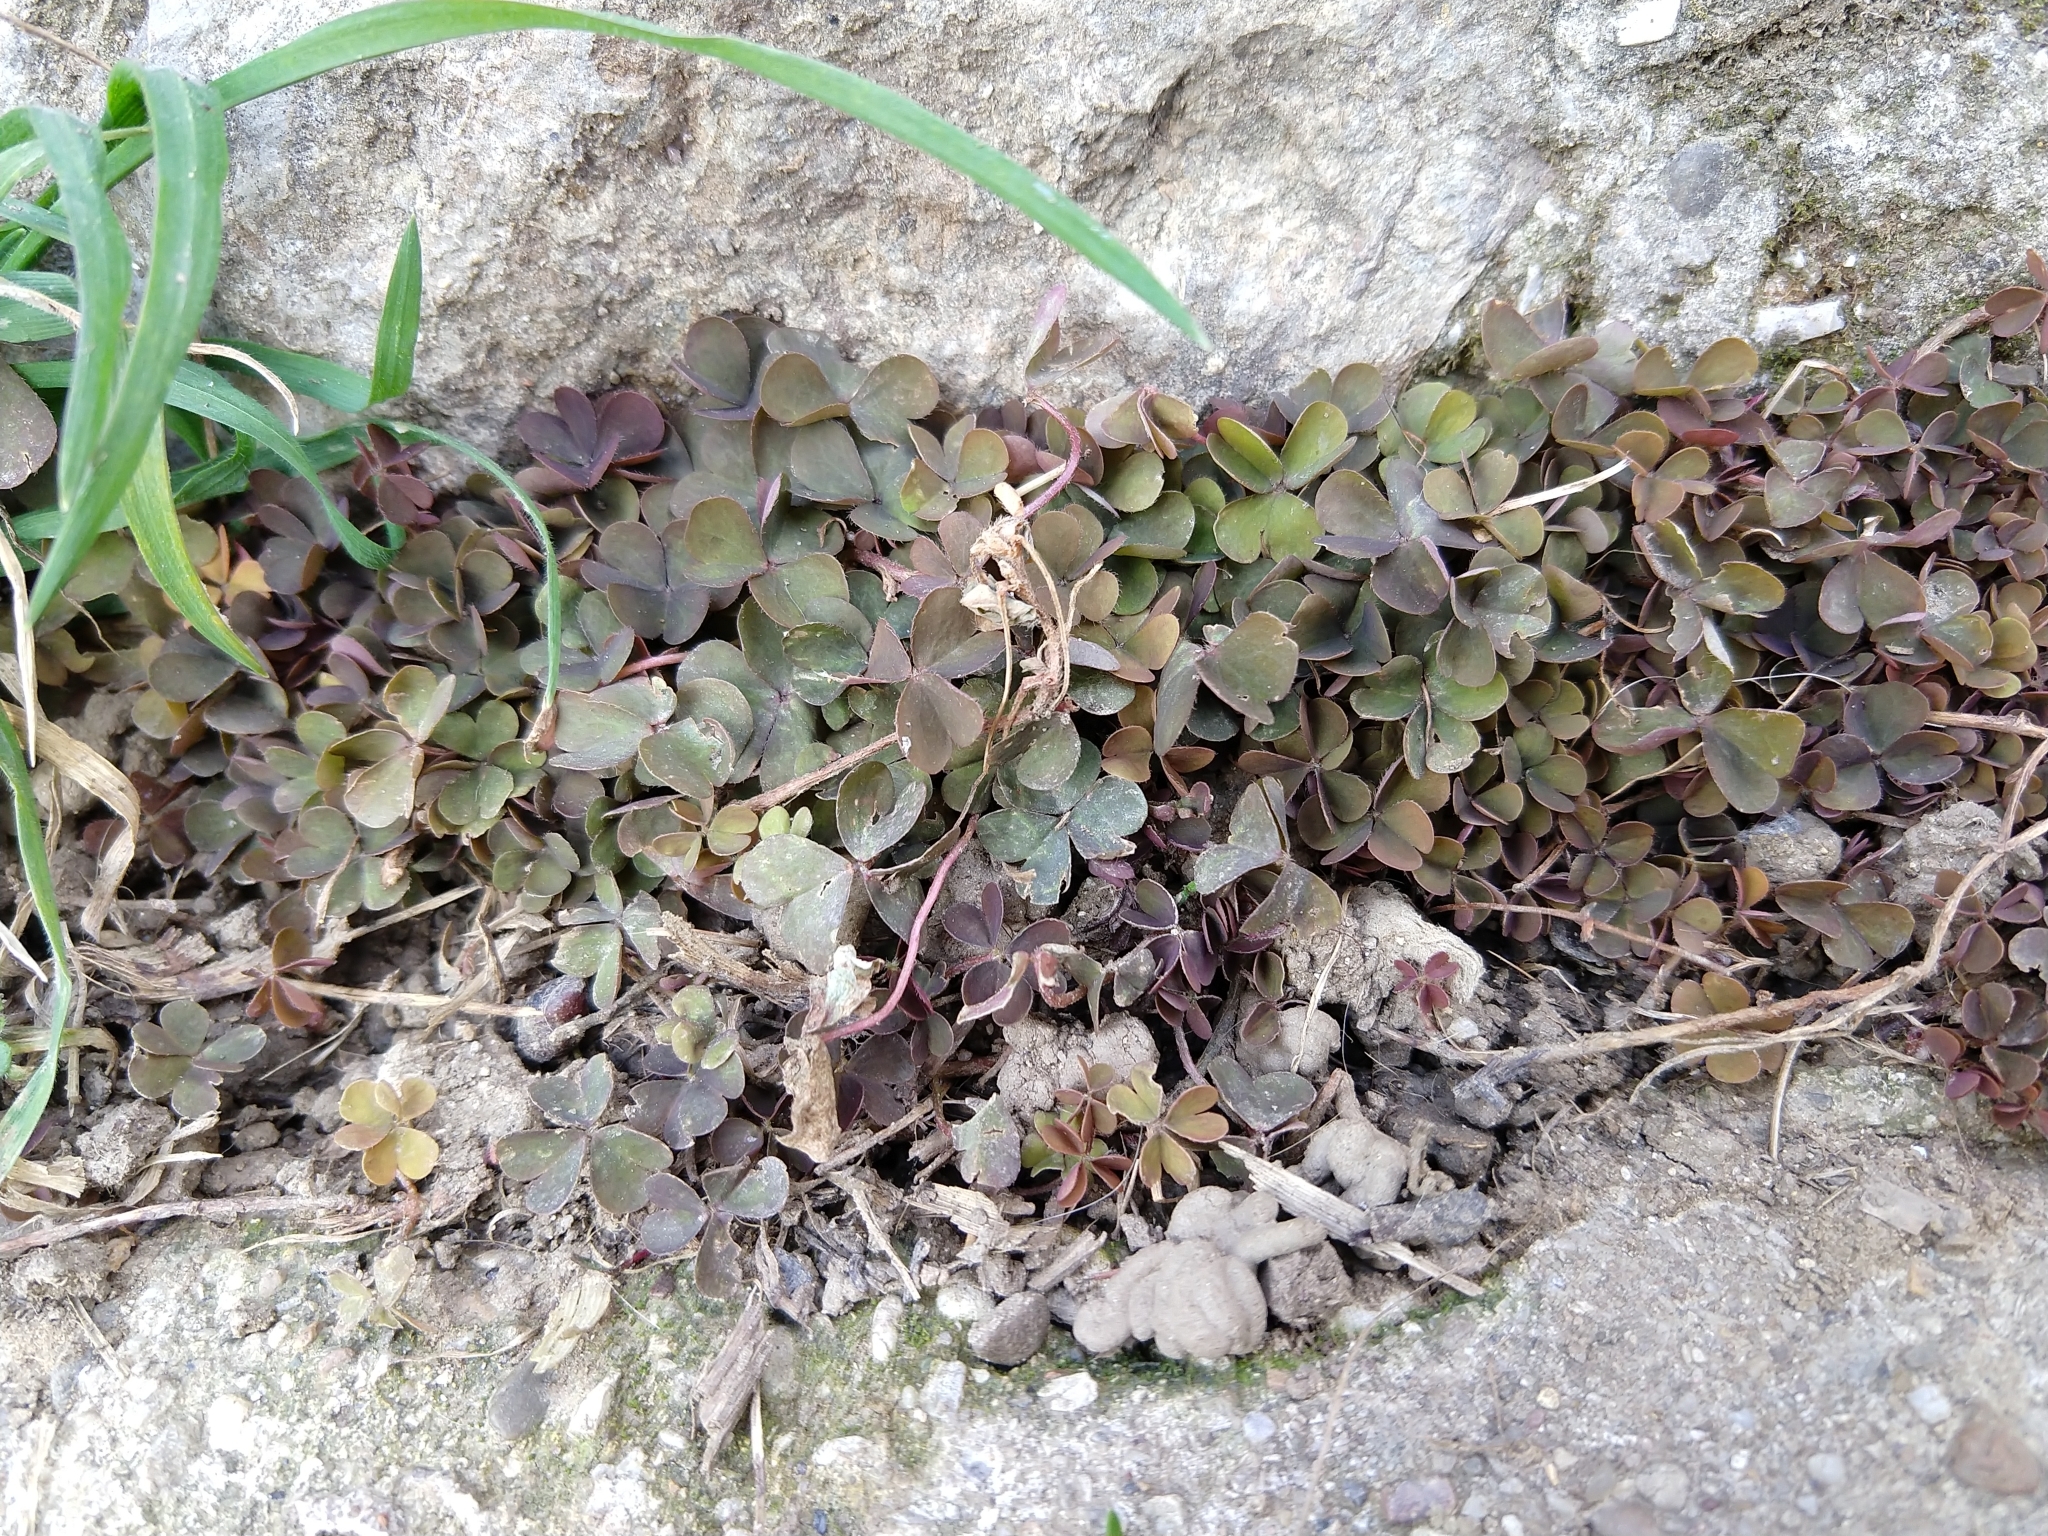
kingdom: Plantae
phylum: Tracheophyta
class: Magnoliopsida
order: Oxalidales
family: Oxalidaceae
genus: Oxalis
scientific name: Oxalis corniculata
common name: Procumbent yellow-sorrel
